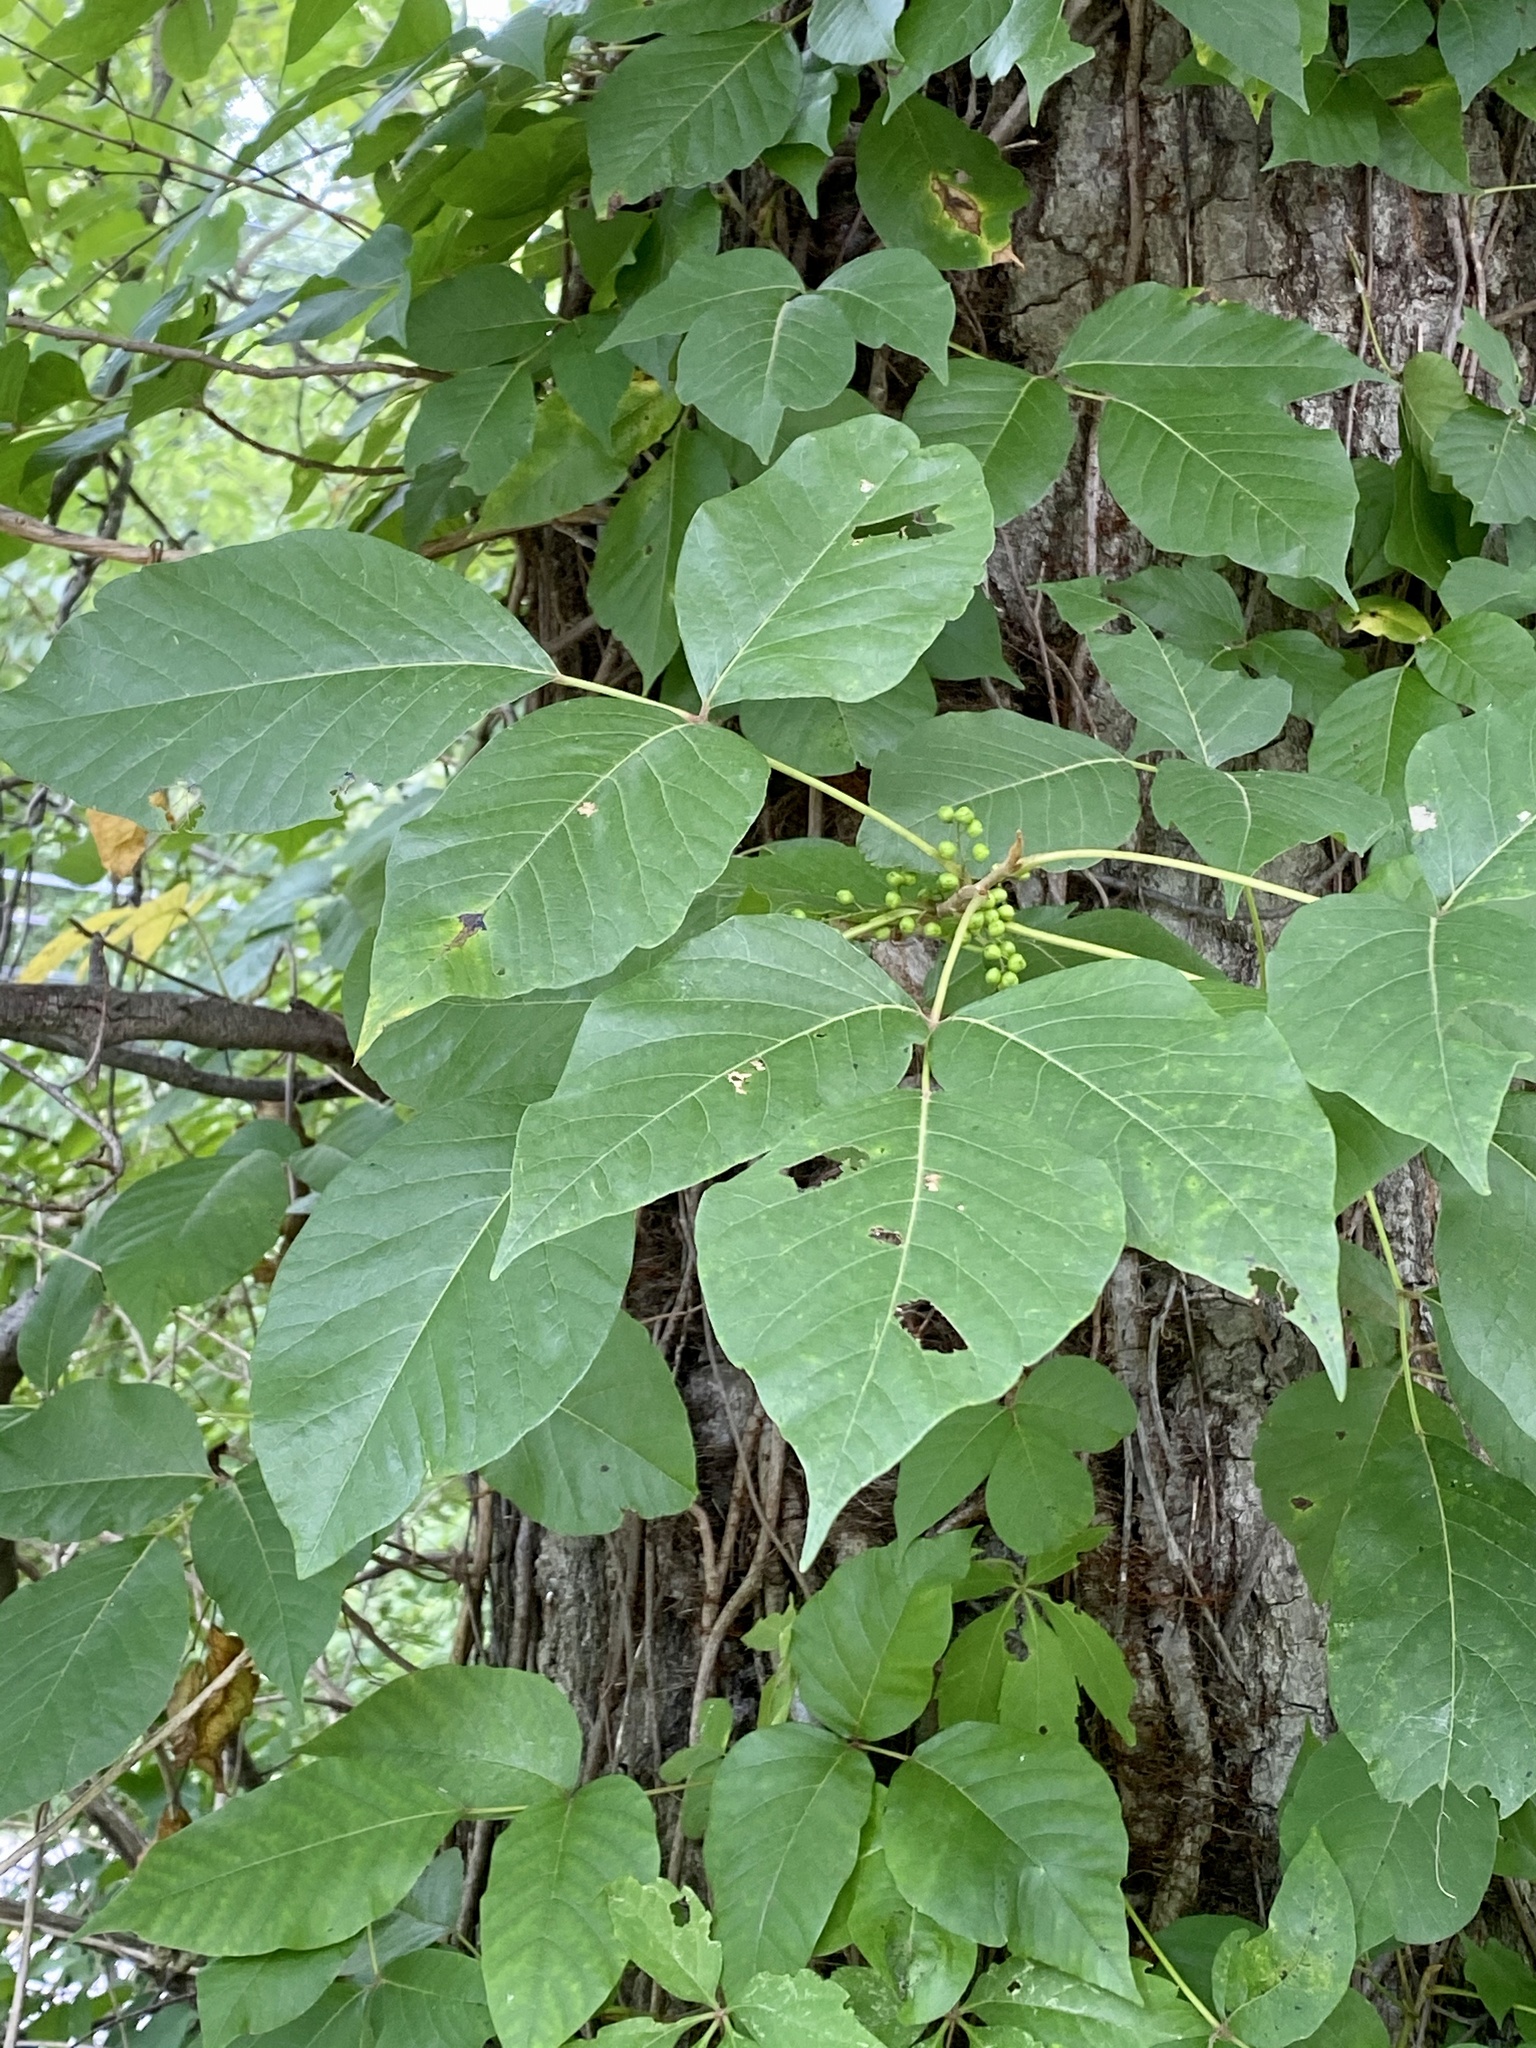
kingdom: Plantae
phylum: Tracheophyta
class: Magnoliopsida
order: Sapindales
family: Anacardiaceae
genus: Toxicodendron
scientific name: Toxicodendron radicans
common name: Poison ivy
